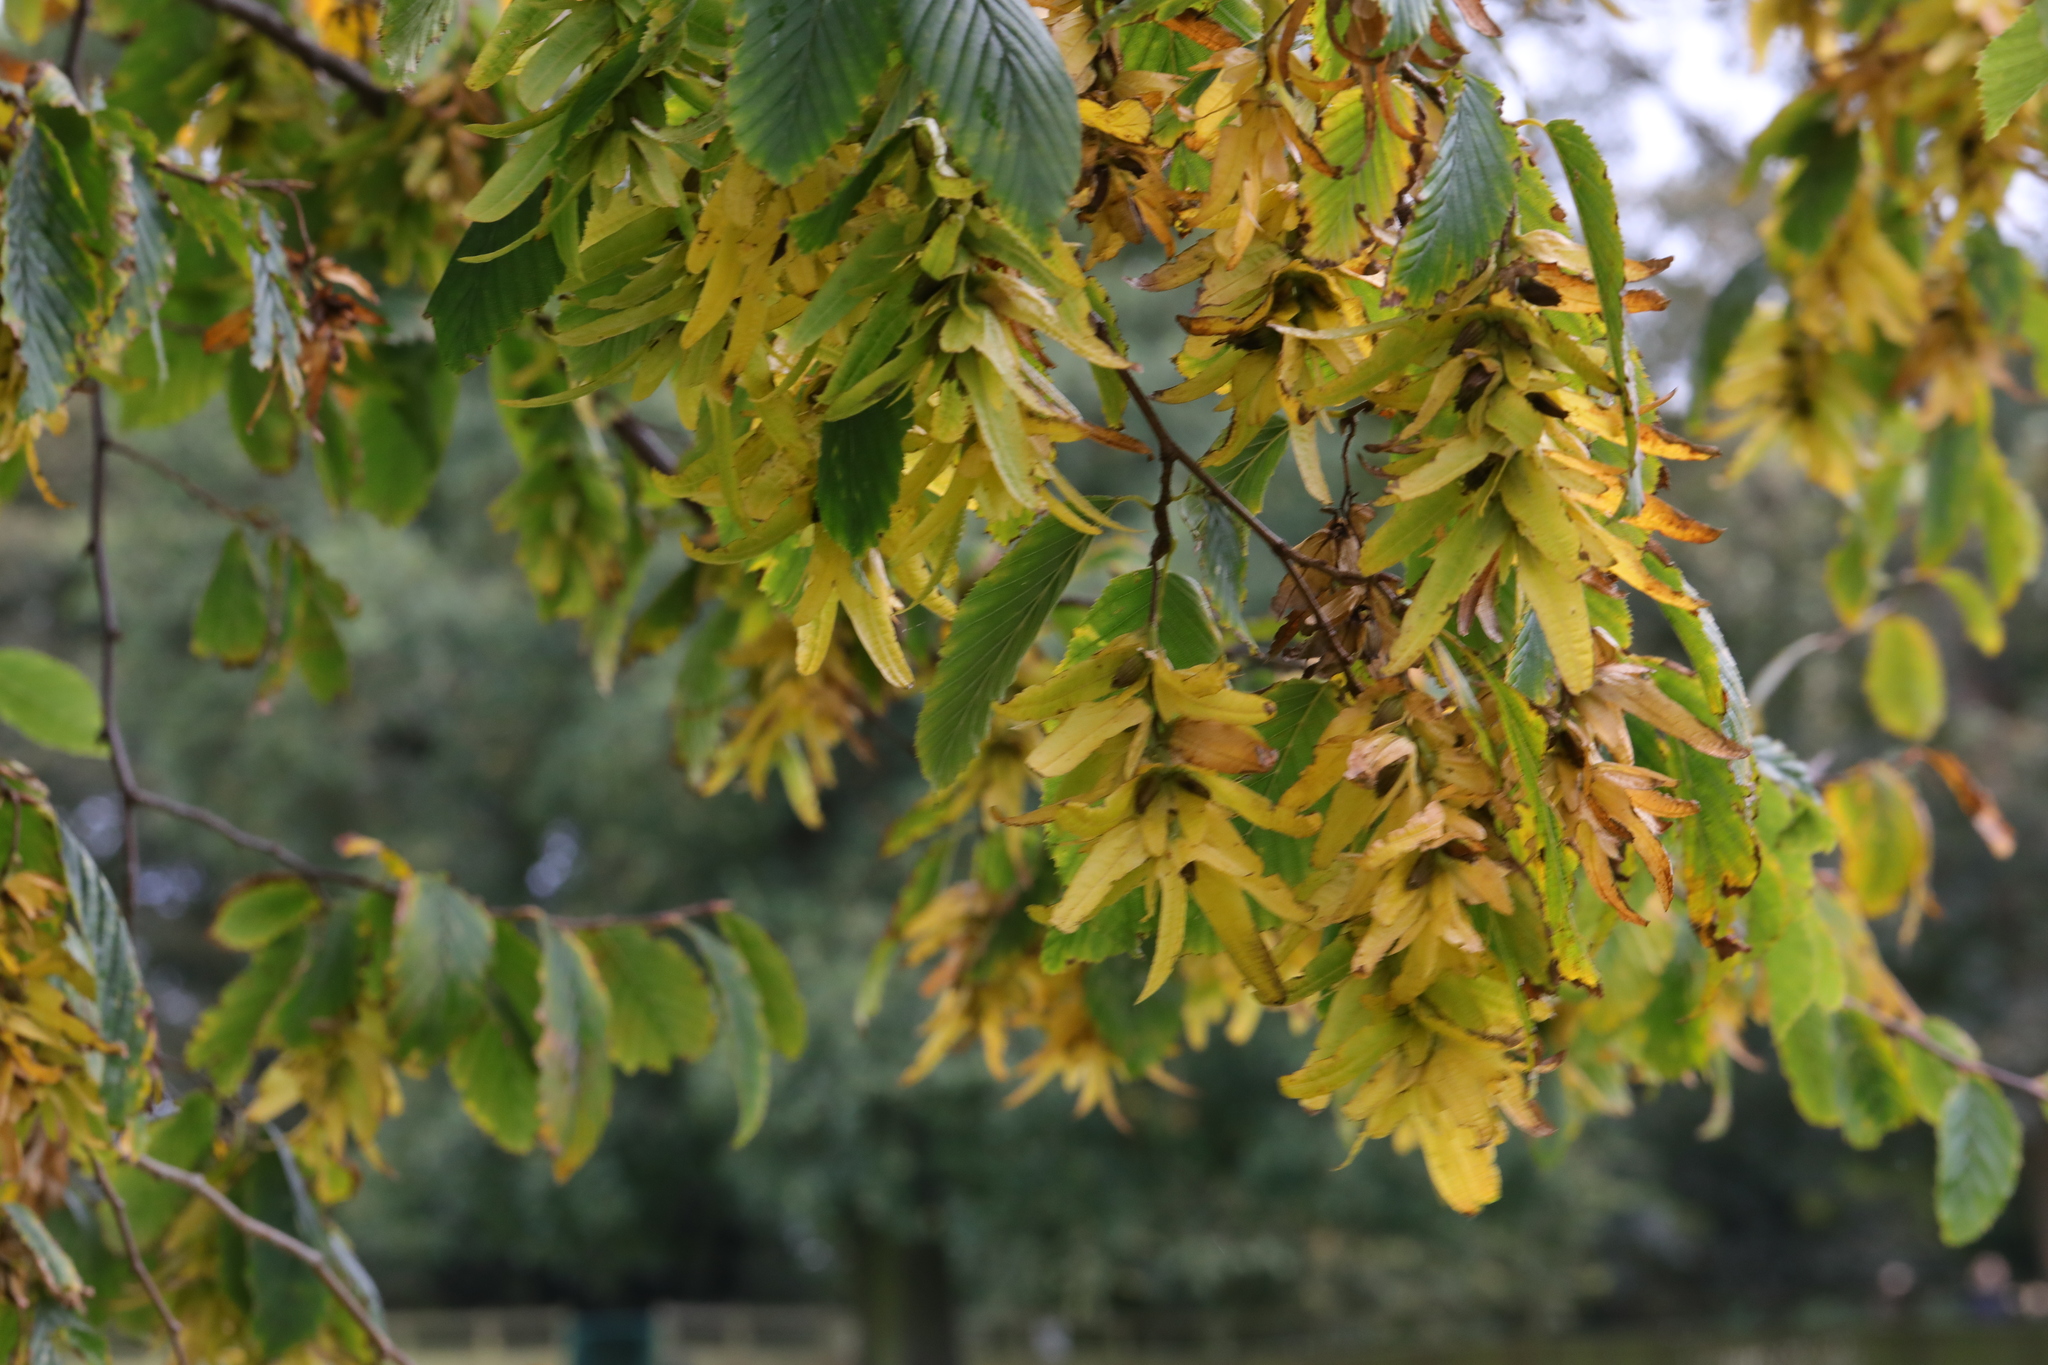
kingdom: Plantae
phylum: Tracheophyta
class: Magnoliopsida
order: Fagales
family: Betulaceae
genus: Carpinus
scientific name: Carpinus betulus
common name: Hornbeam
